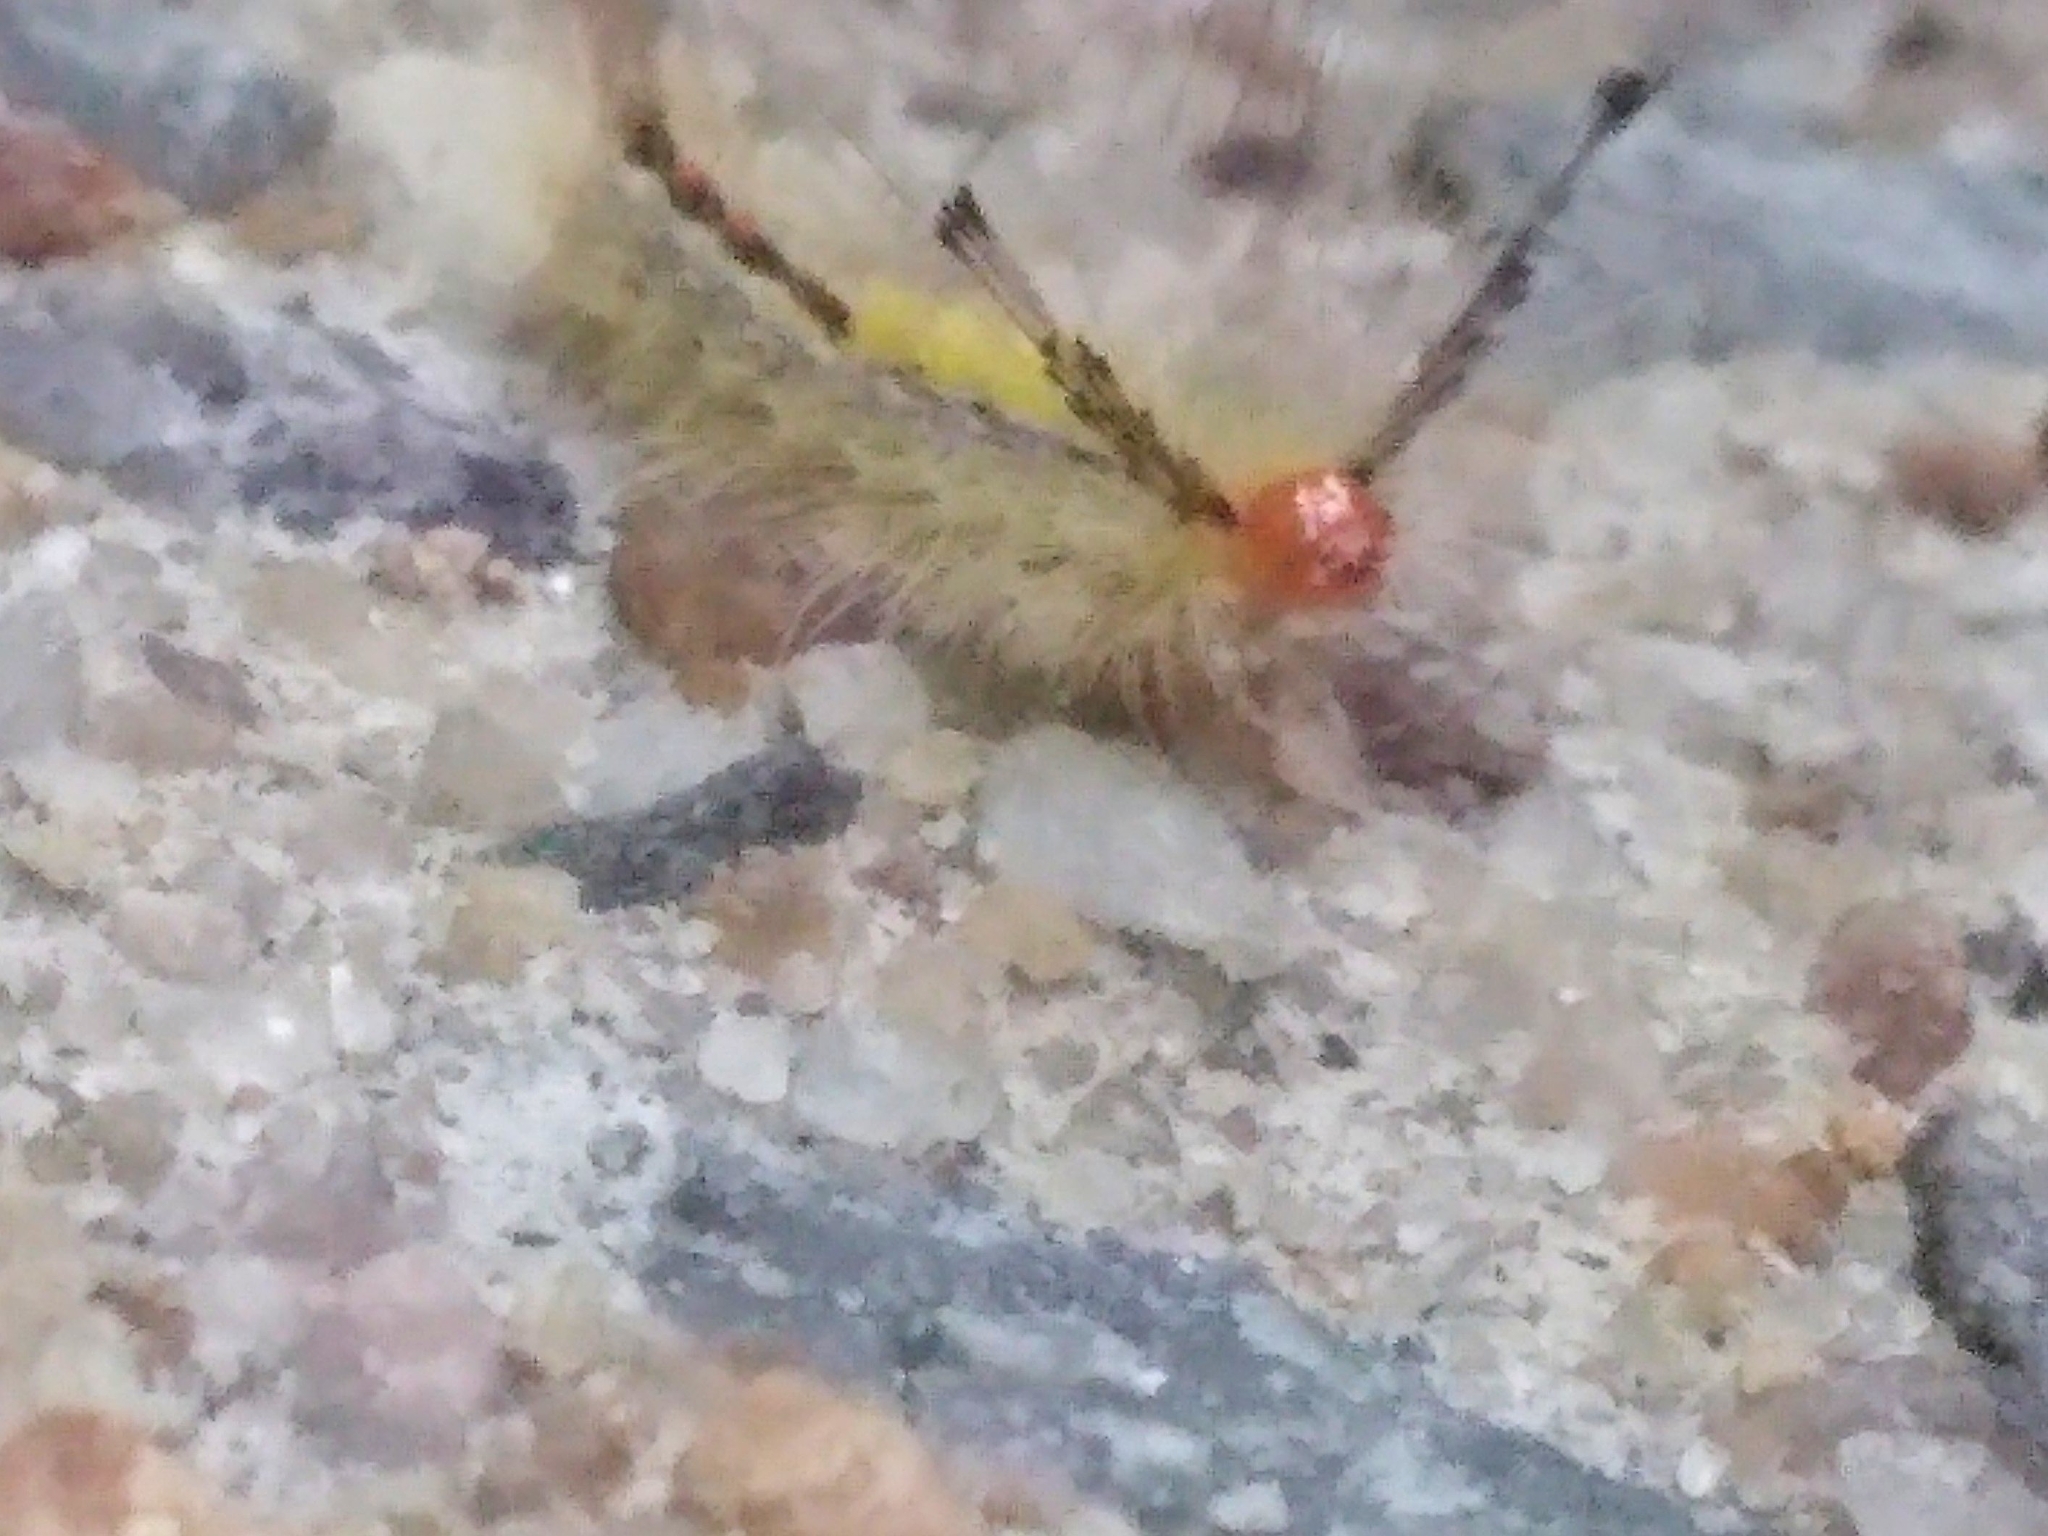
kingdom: Animalia
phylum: Arthropoda
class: Insecta
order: Lepidoptera
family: Erebidae
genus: Orgyia
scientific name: Orgyia leucostigma
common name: White-marked tussock moth
